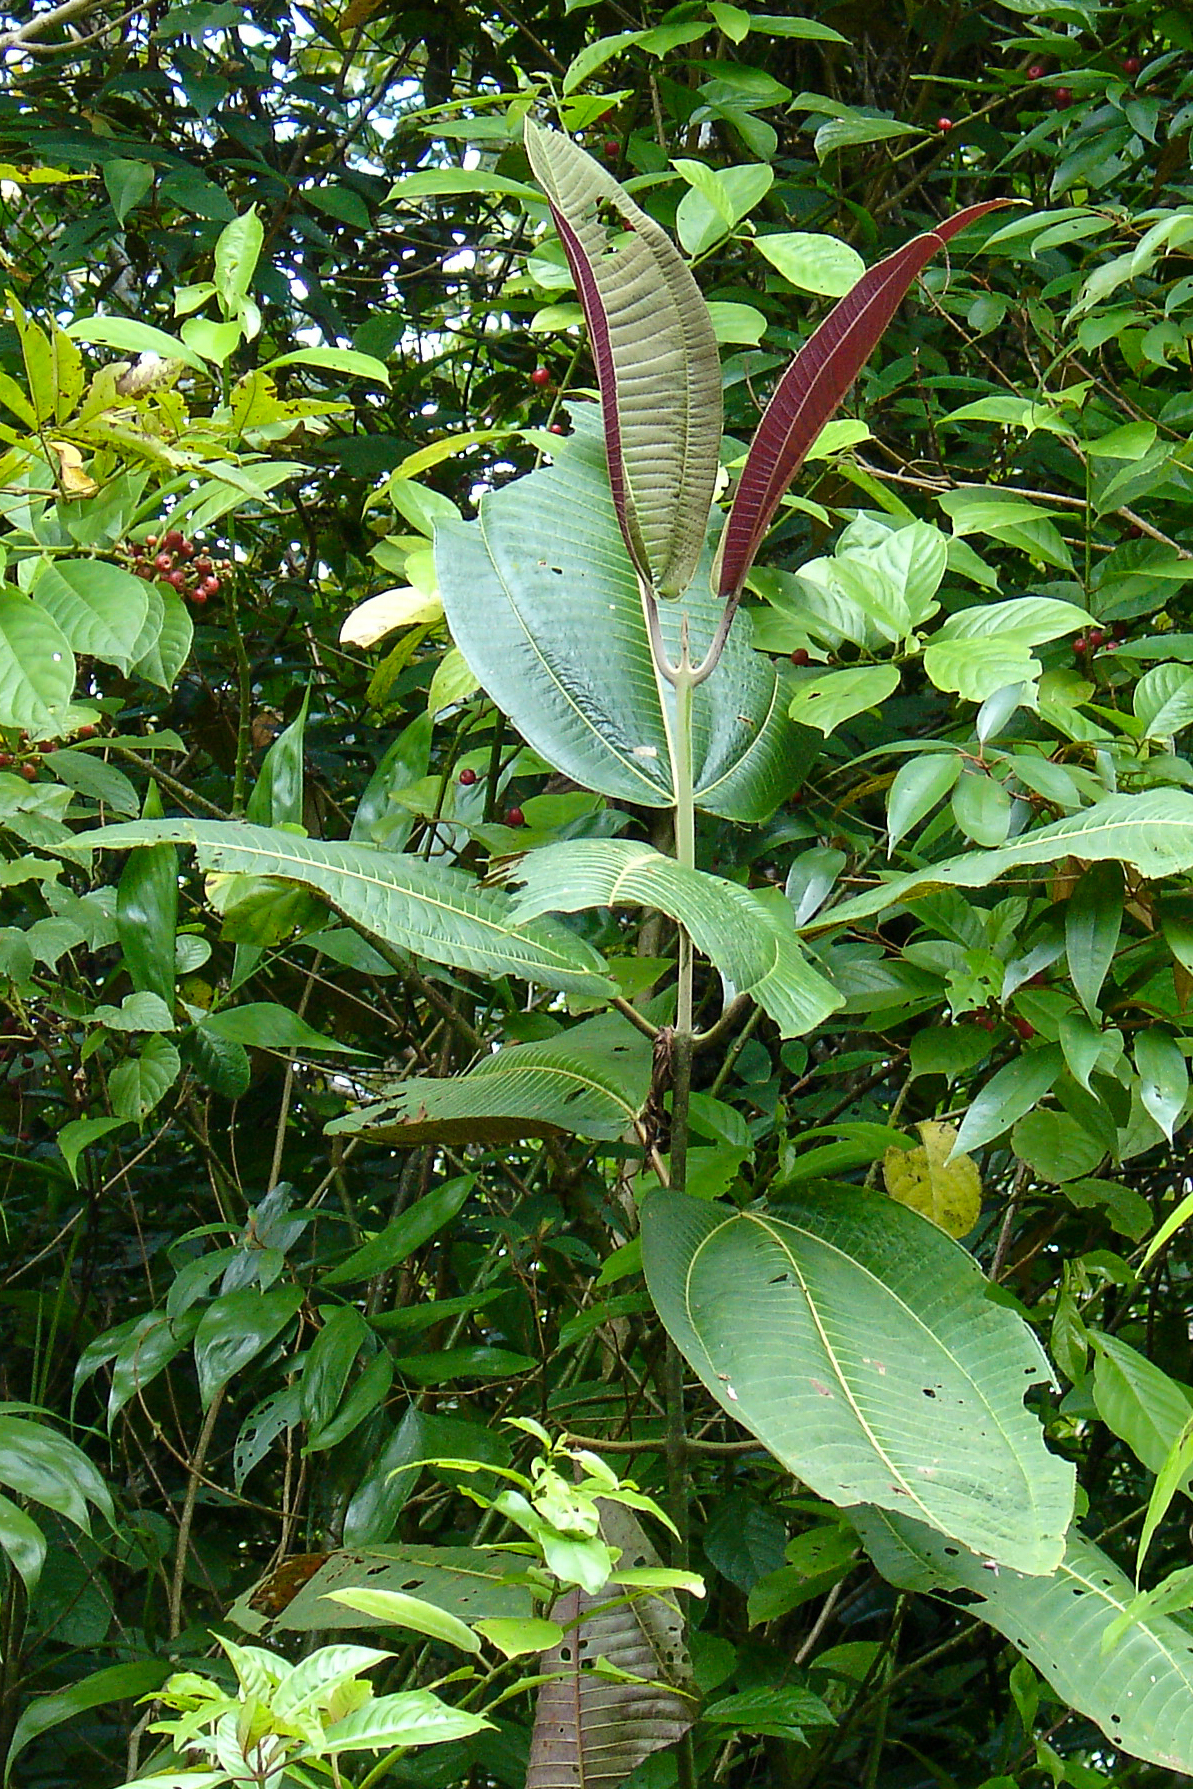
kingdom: Plantae
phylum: Tracheophyta
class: Magnoliopsida
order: Myrtales
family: Melastomataceae
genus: Miconia
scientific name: Miconia calvescens
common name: Purple plague
